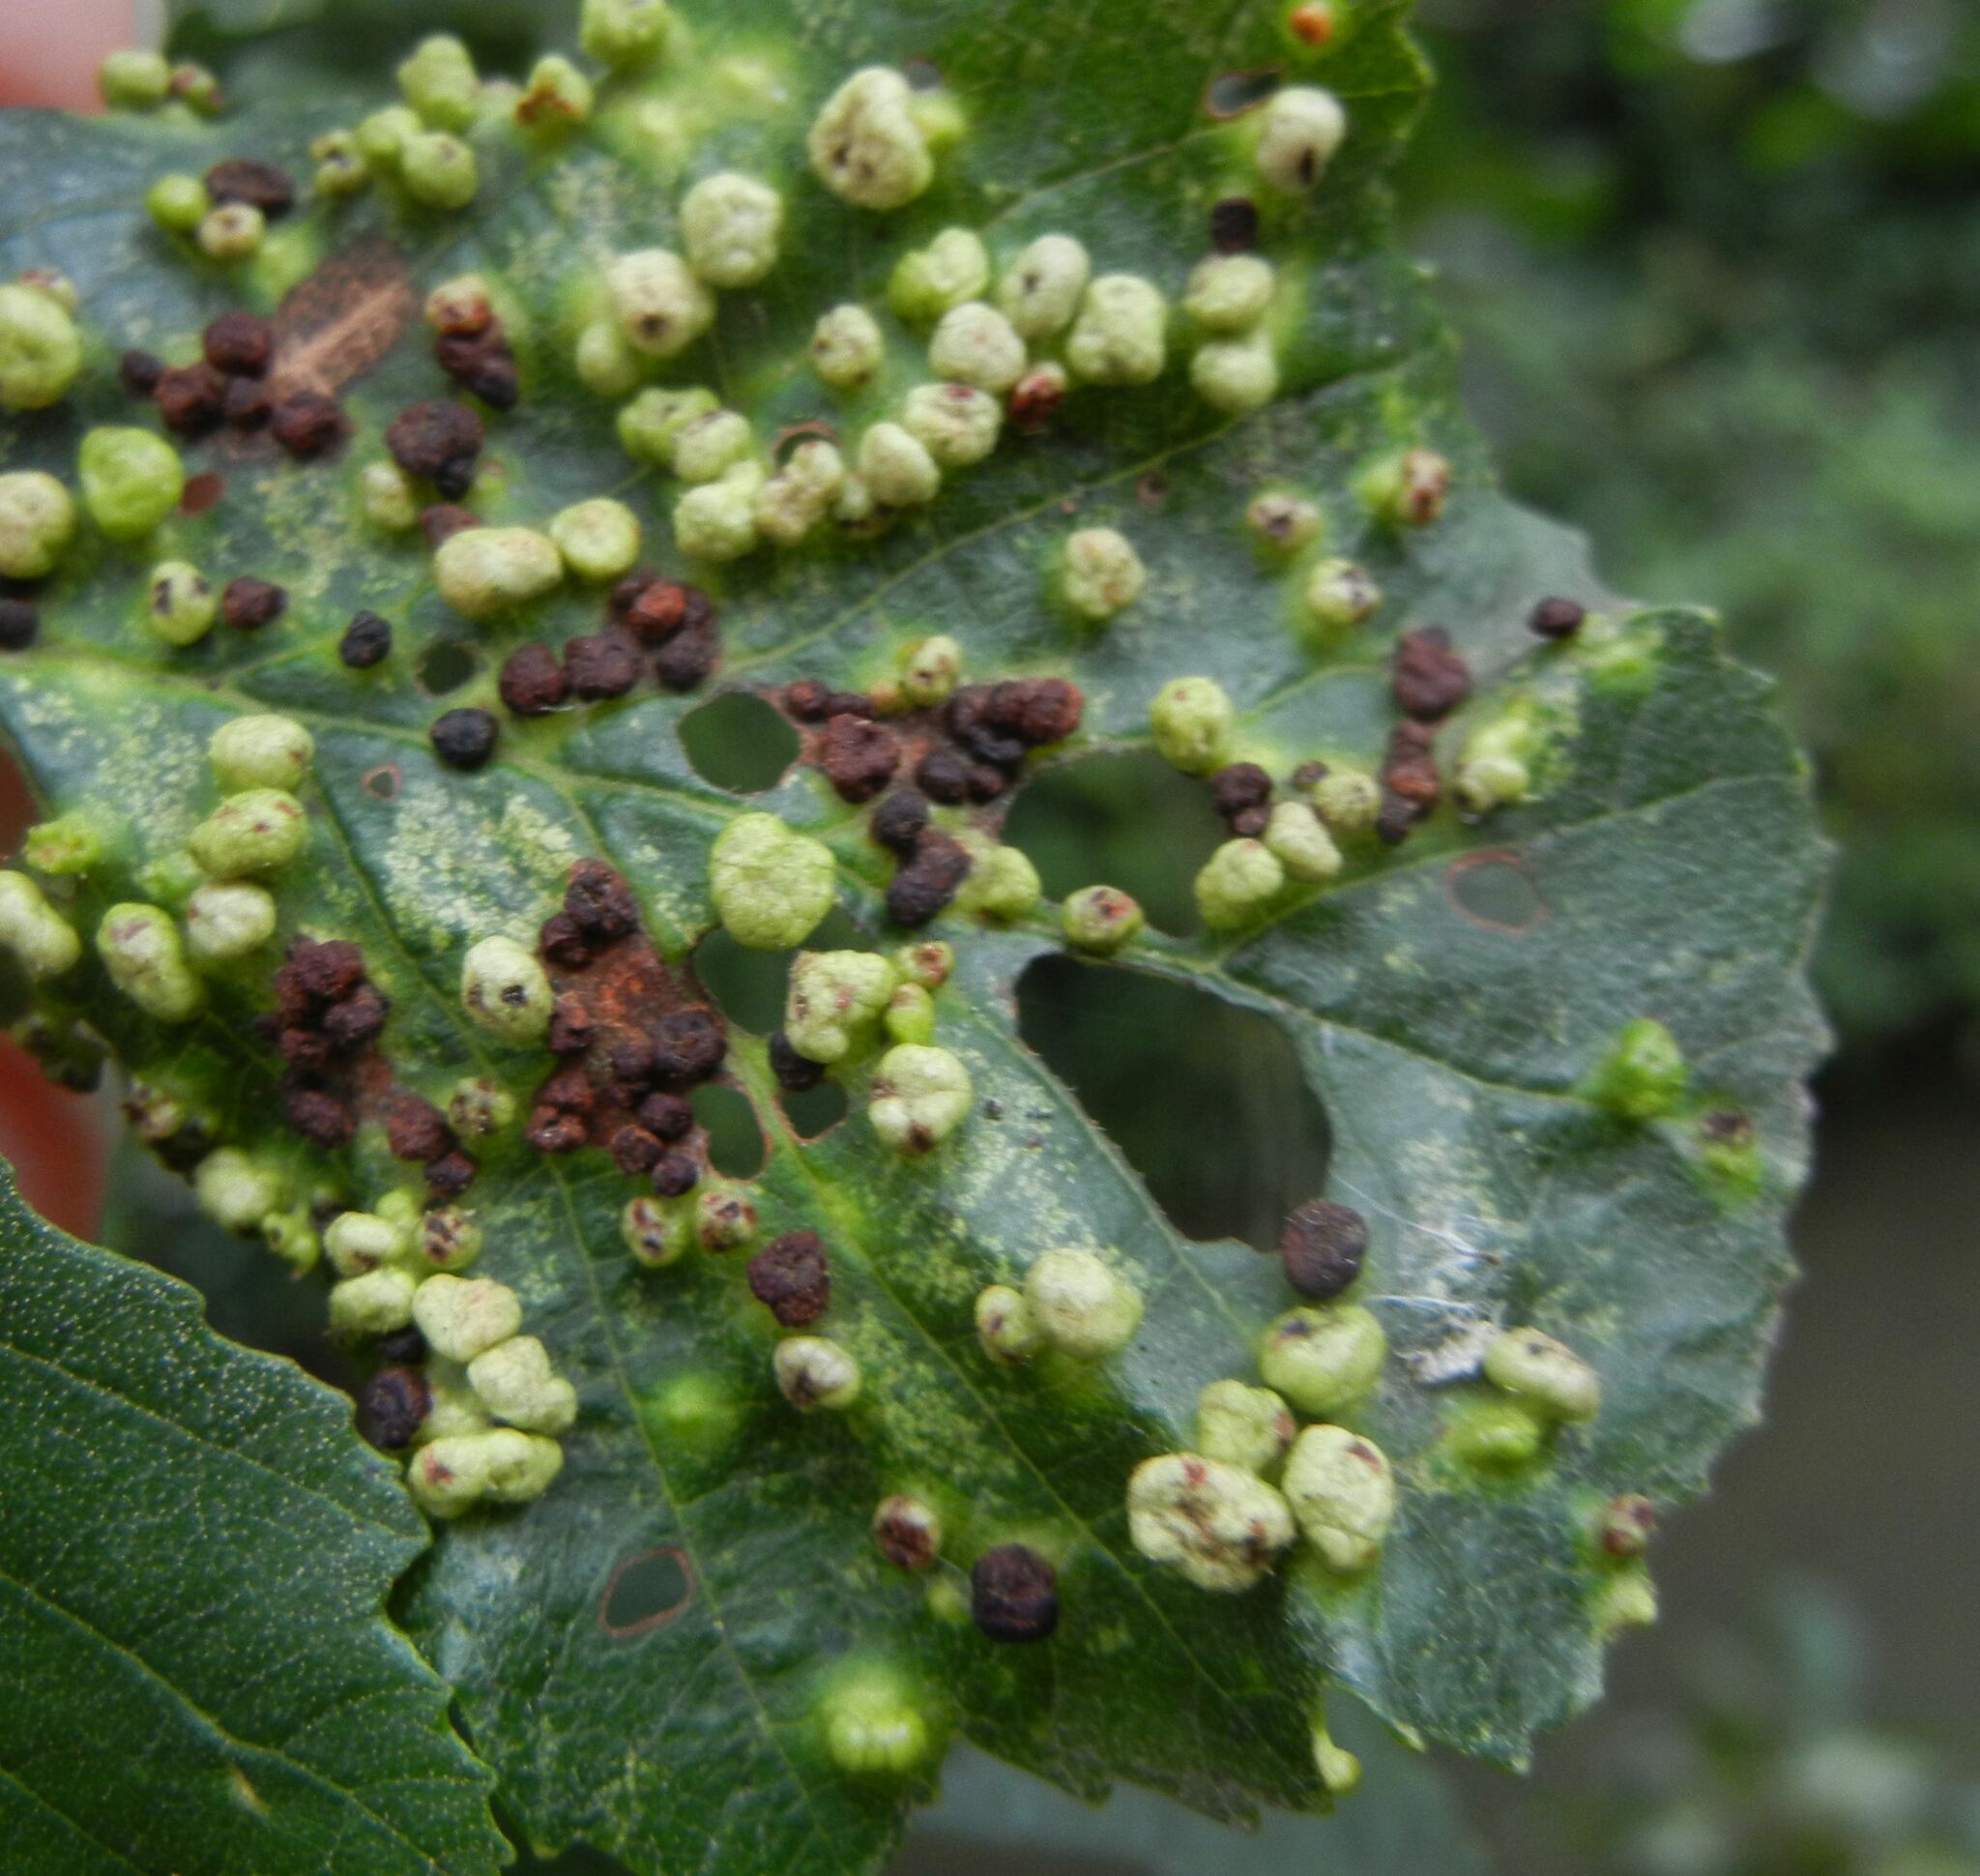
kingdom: Animalia
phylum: Arthropoda
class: Arachnida
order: Trombidiformes
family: Eriophyidae
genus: Eriophyes
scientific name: Eriophyes laevis
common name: Alder leaf gall mite
